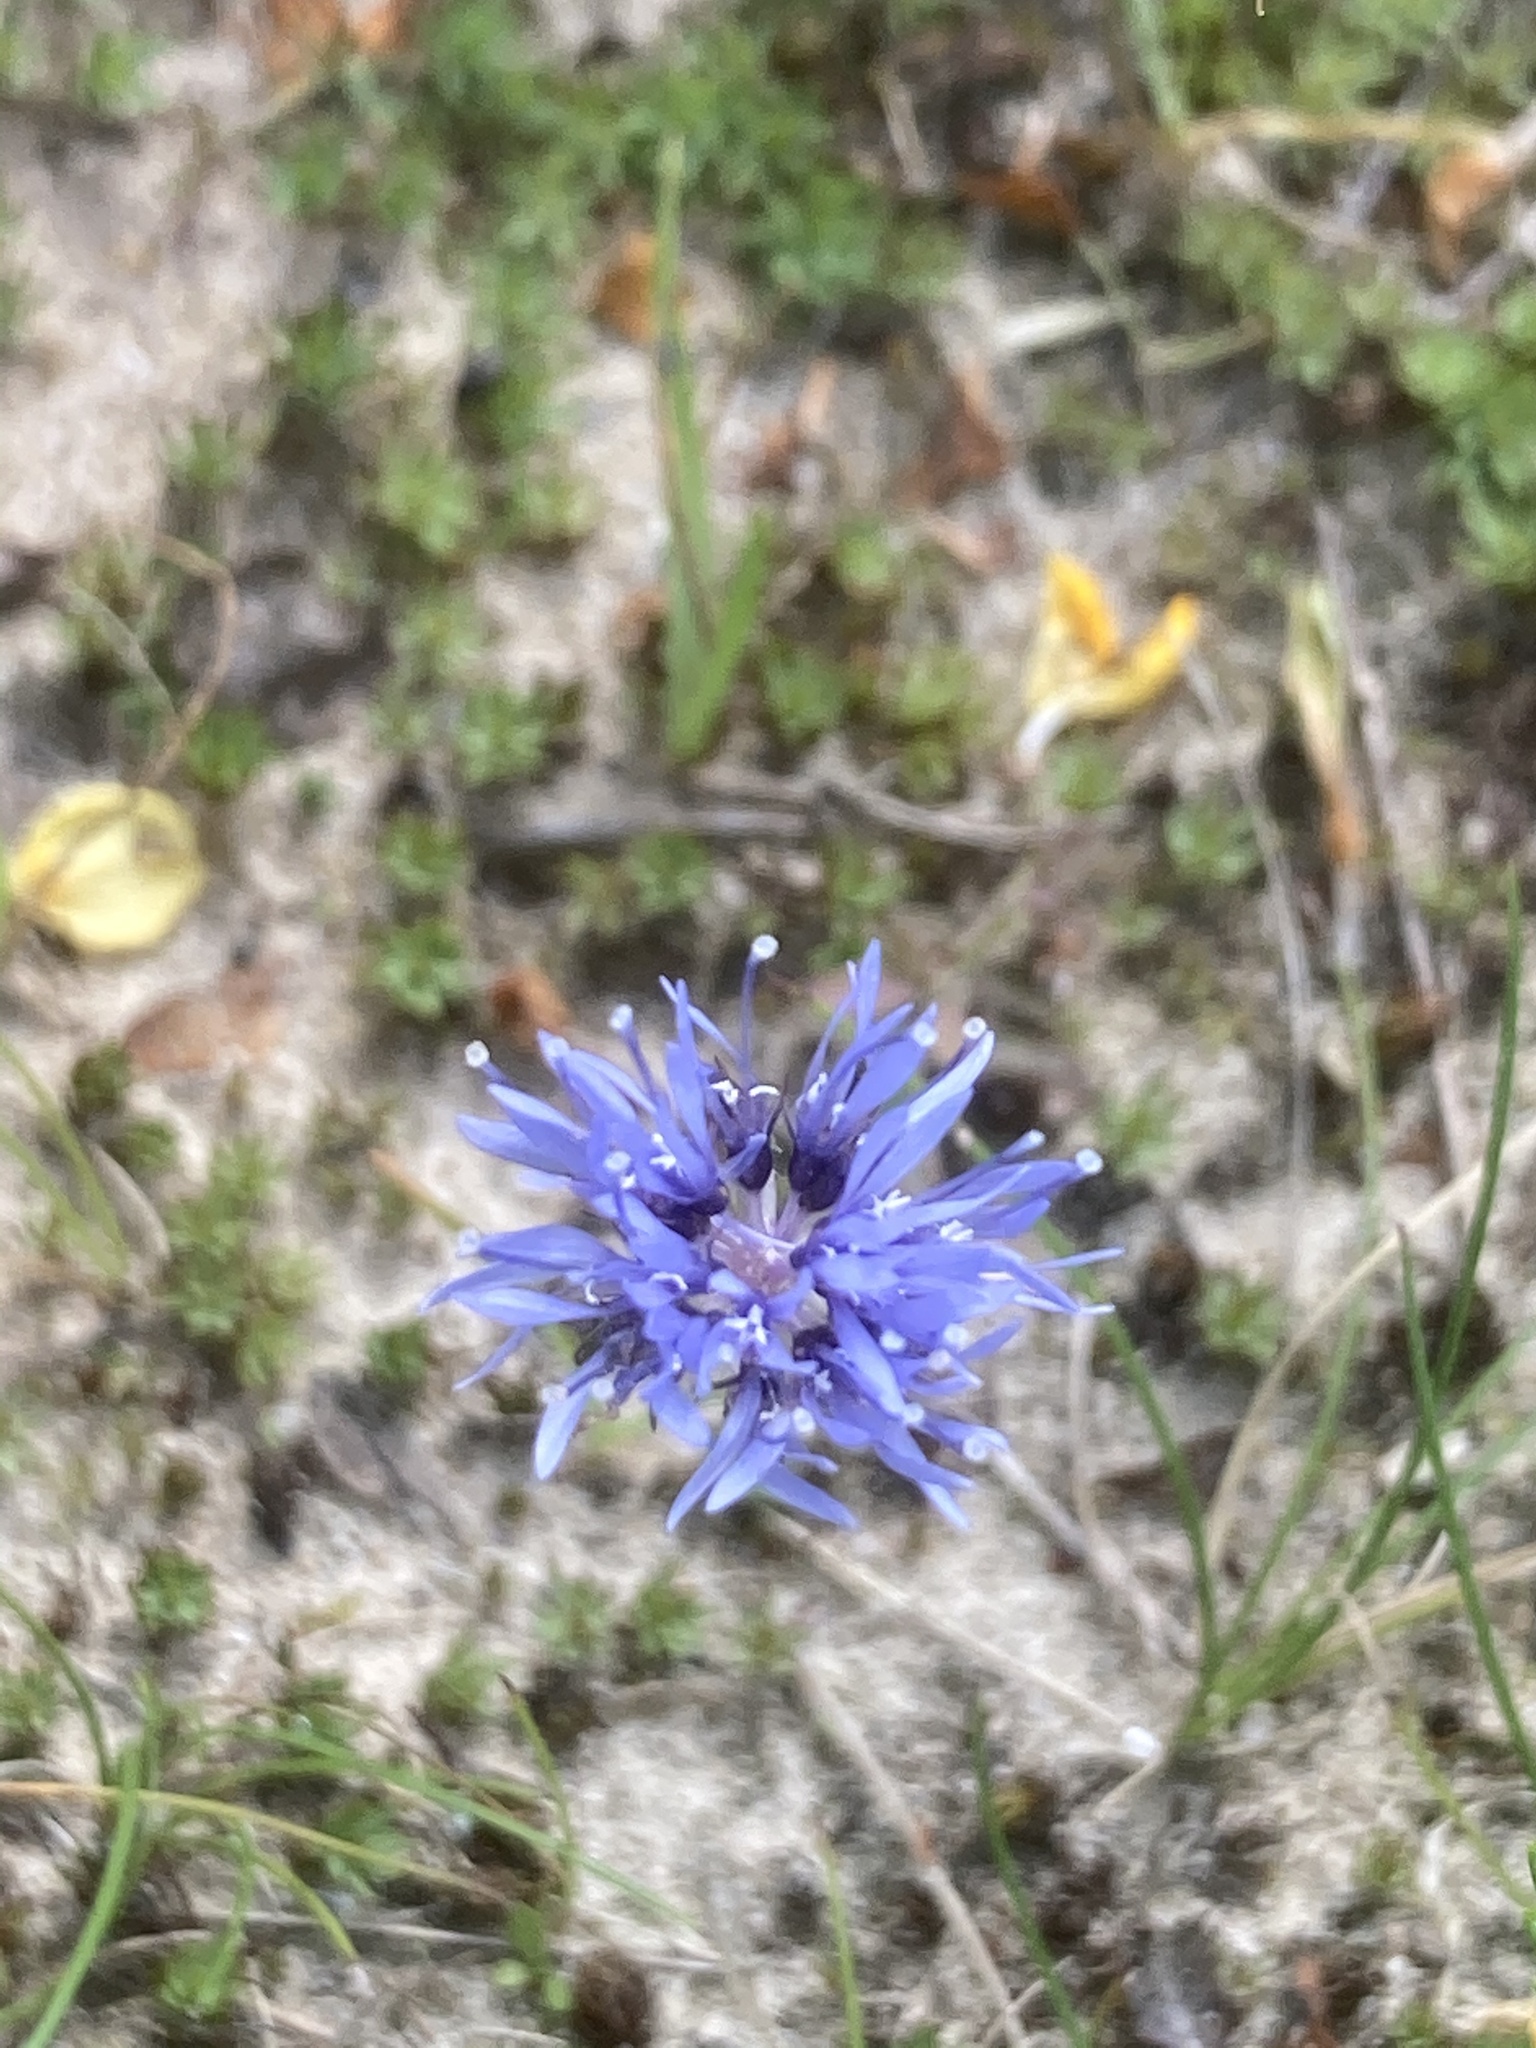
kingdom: Plantae
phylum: Tracheophyta
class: Magnoliopsida
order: Asterales
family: Campanulaceae
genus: Jasione
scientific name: Jasione montana
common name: Sheep's-bit
